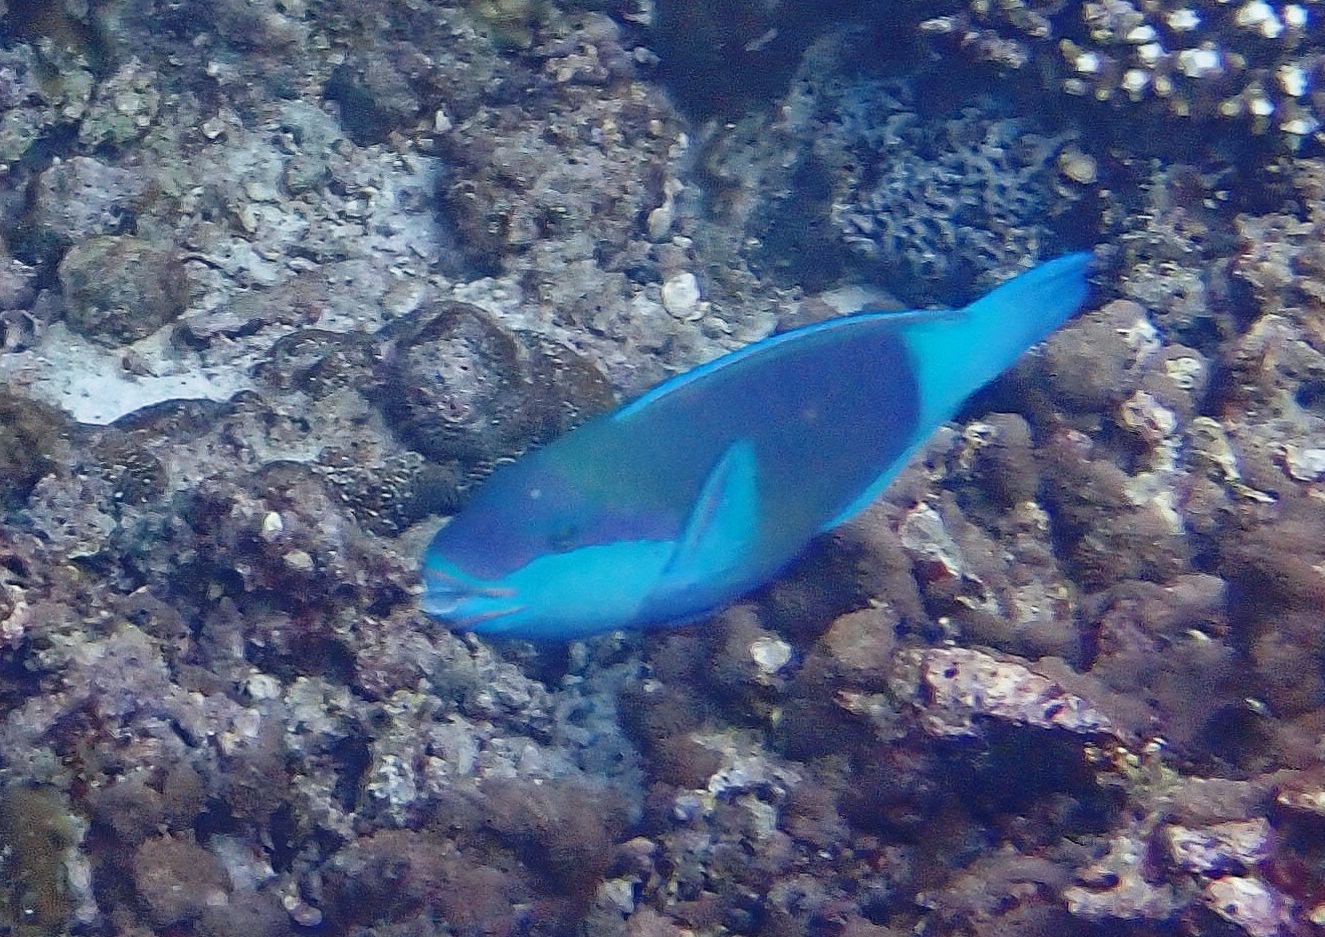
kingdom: Animalia
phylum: Chordata
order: Perciformes
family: Scaridae
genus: Chlorurus
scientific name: Chlorurus sordidus
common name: Bullethead parrotfish
